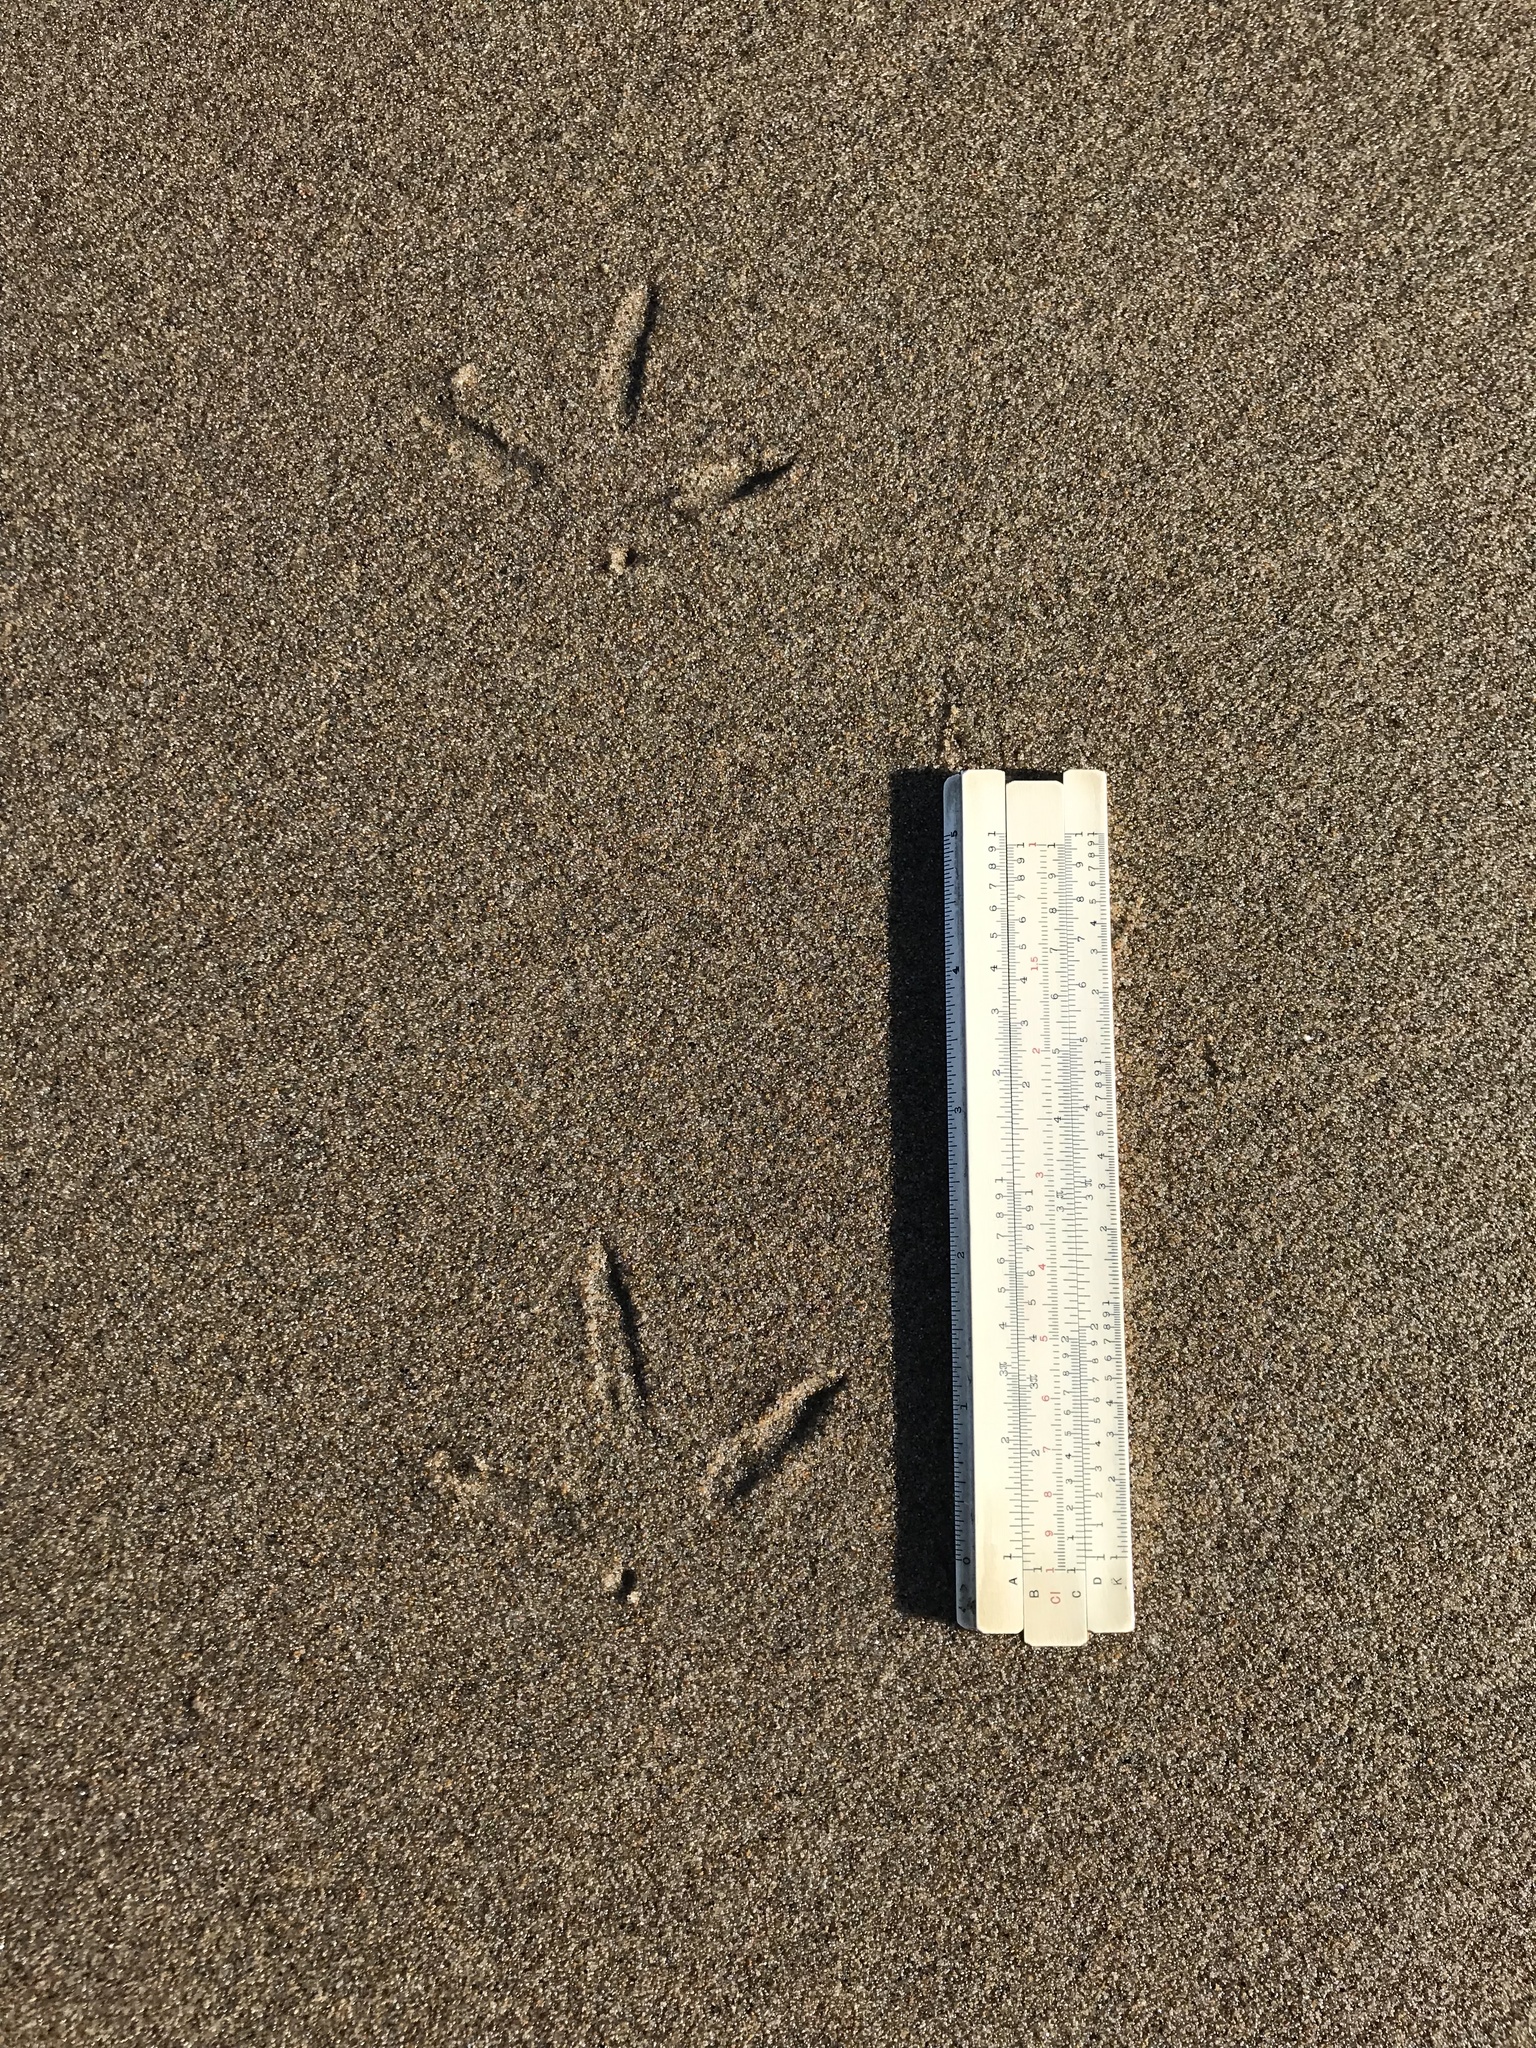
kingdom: Animalia
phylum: Chordata
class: Aves
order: Charadriiformes
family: Scolopacidae
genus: Numenius
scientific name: Numenius americanus
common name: Long-billed curlew
